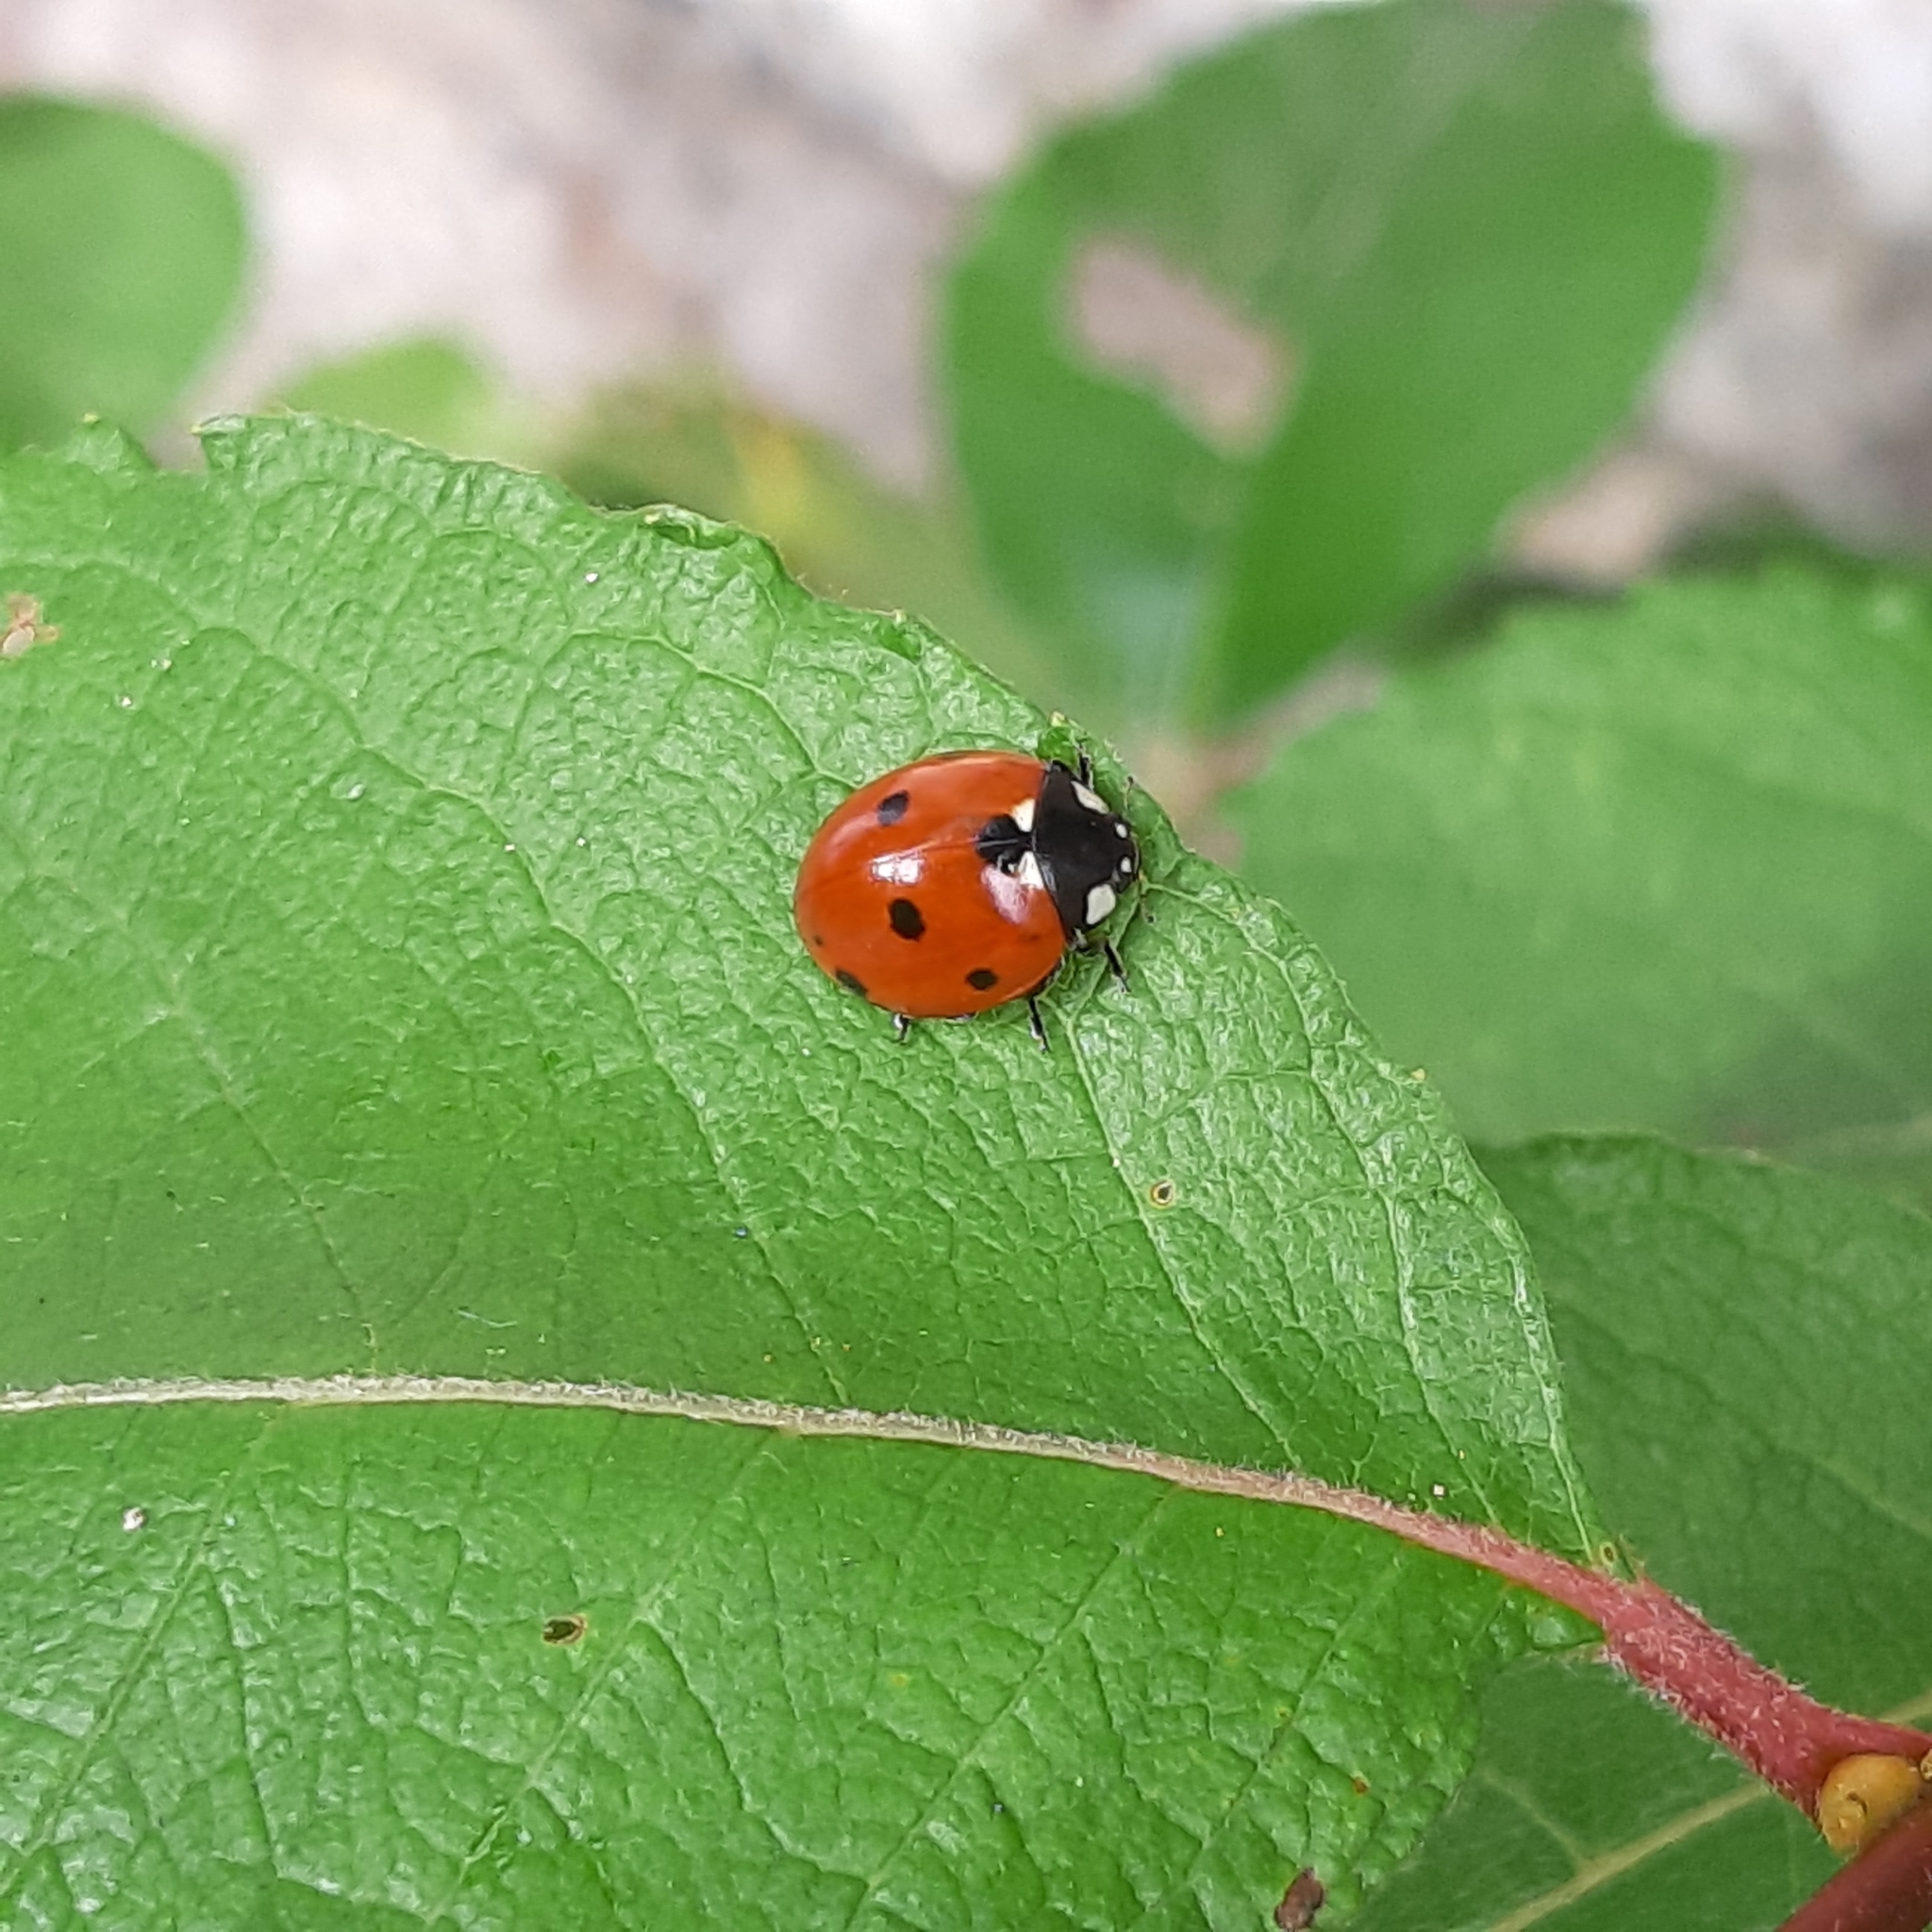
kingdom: Animalia
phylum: Arthropoda
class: Insecta
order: Coleoptera
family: Coccinellidae
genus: Coccinella
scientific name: Coccinella septempunctata
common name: Sevenspotted lady beetle
